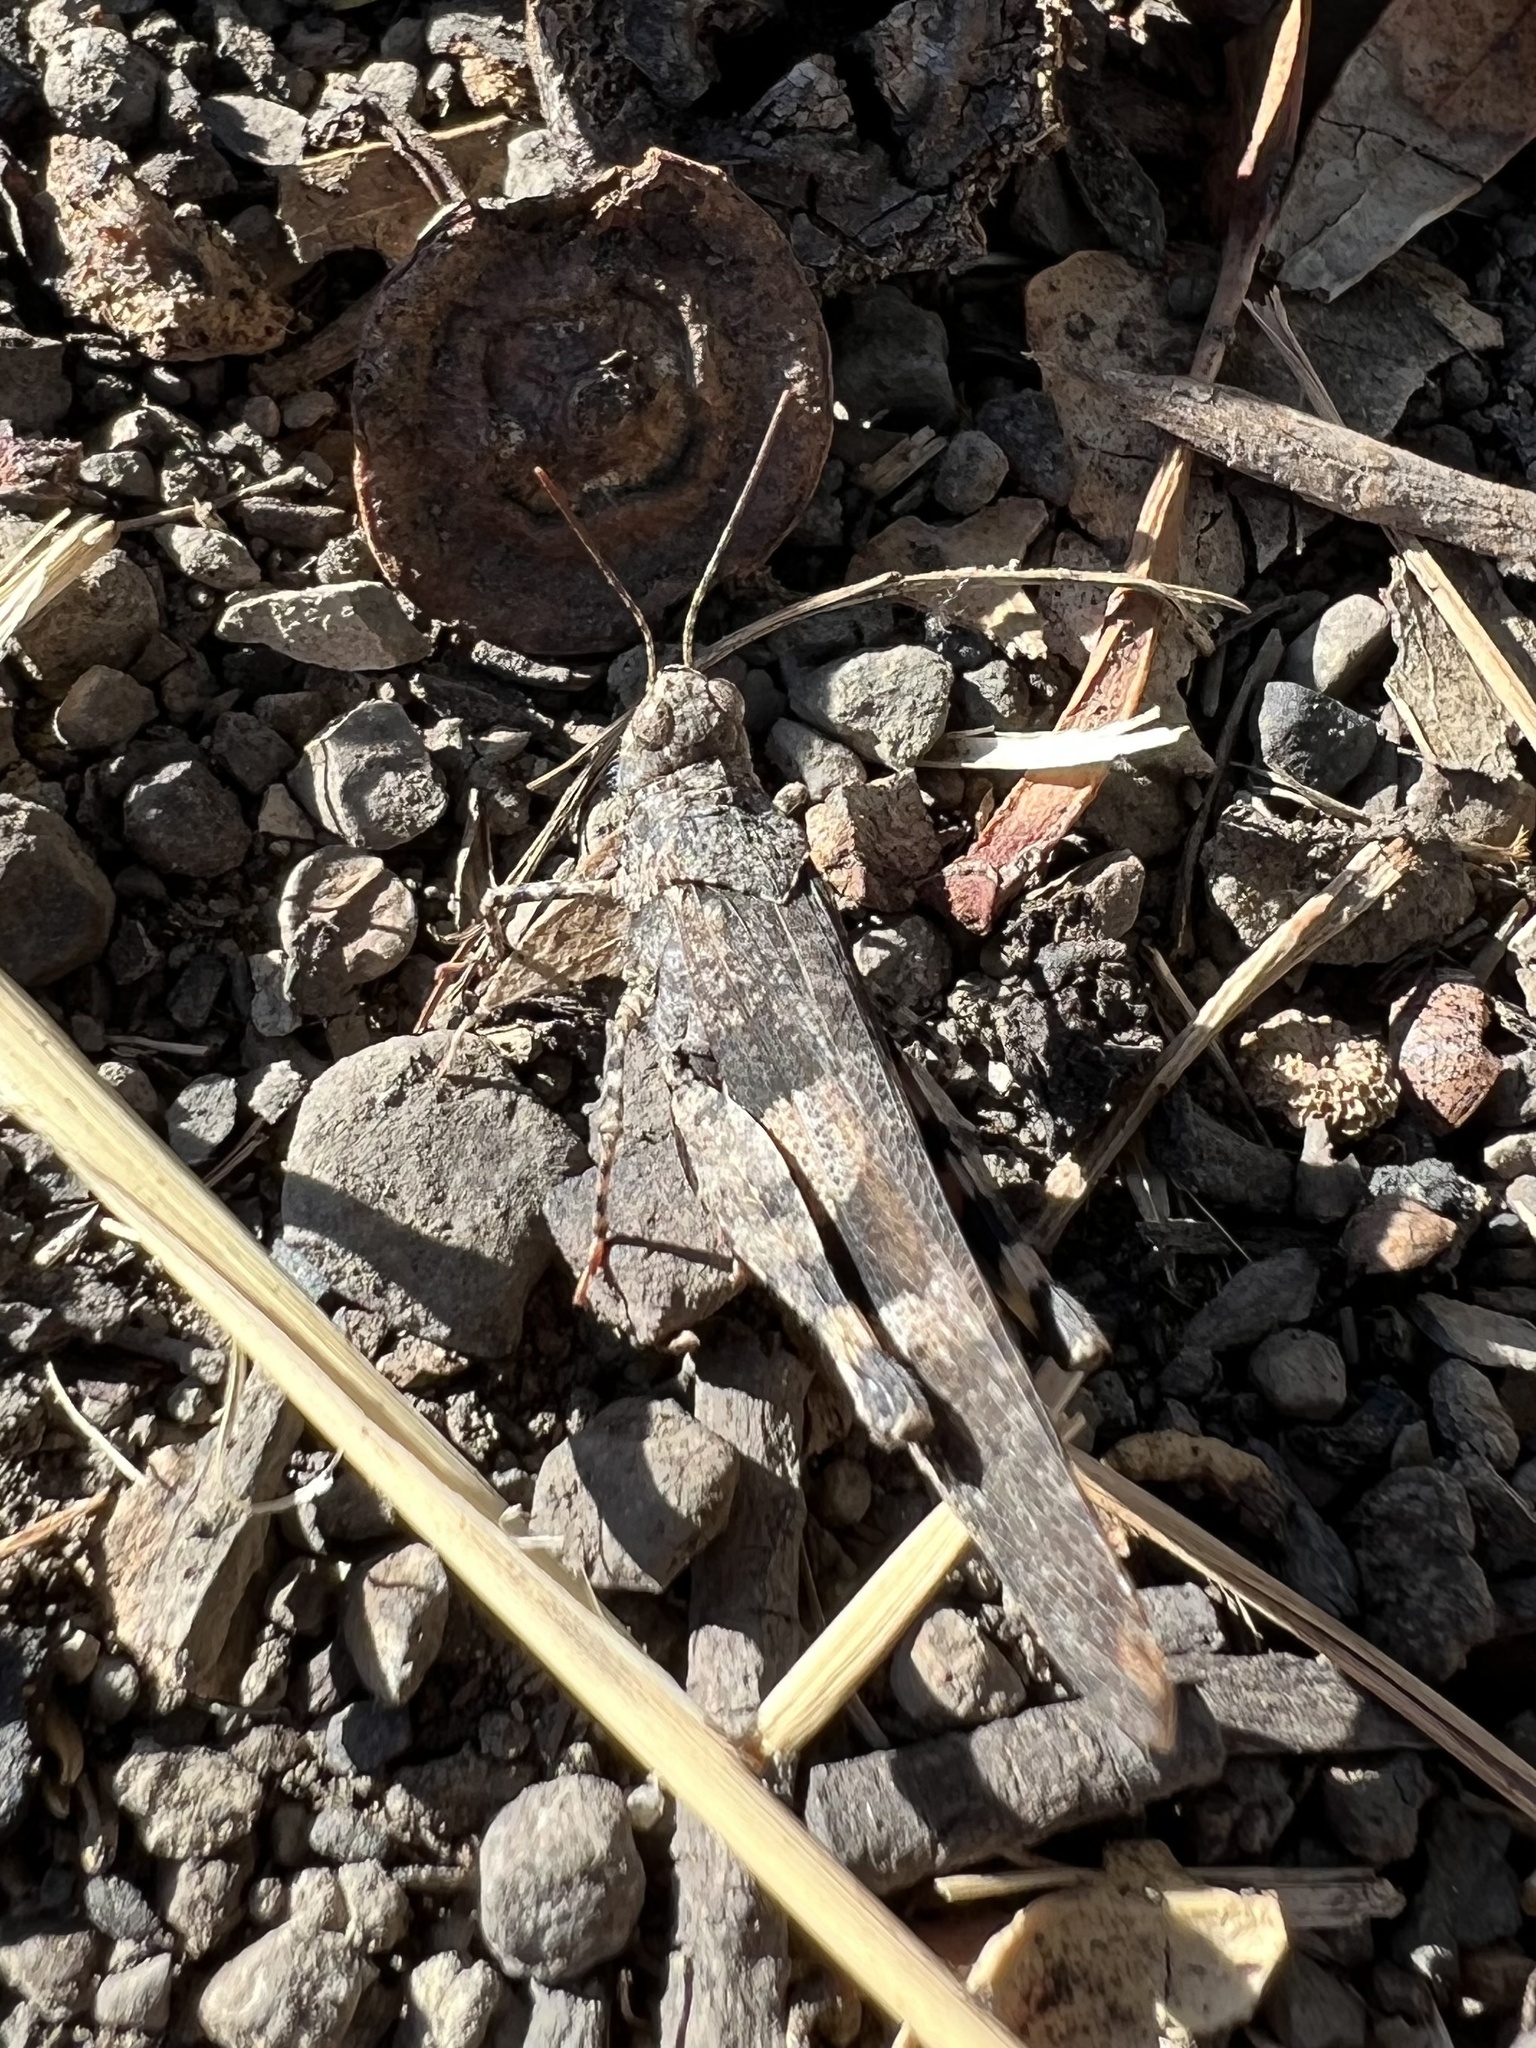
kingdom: Animalia
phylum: Arthropoda
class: Insecta
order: Orthoptera
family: Acrididae
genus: Trimerotropis
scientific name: Trimerotropis fontana
